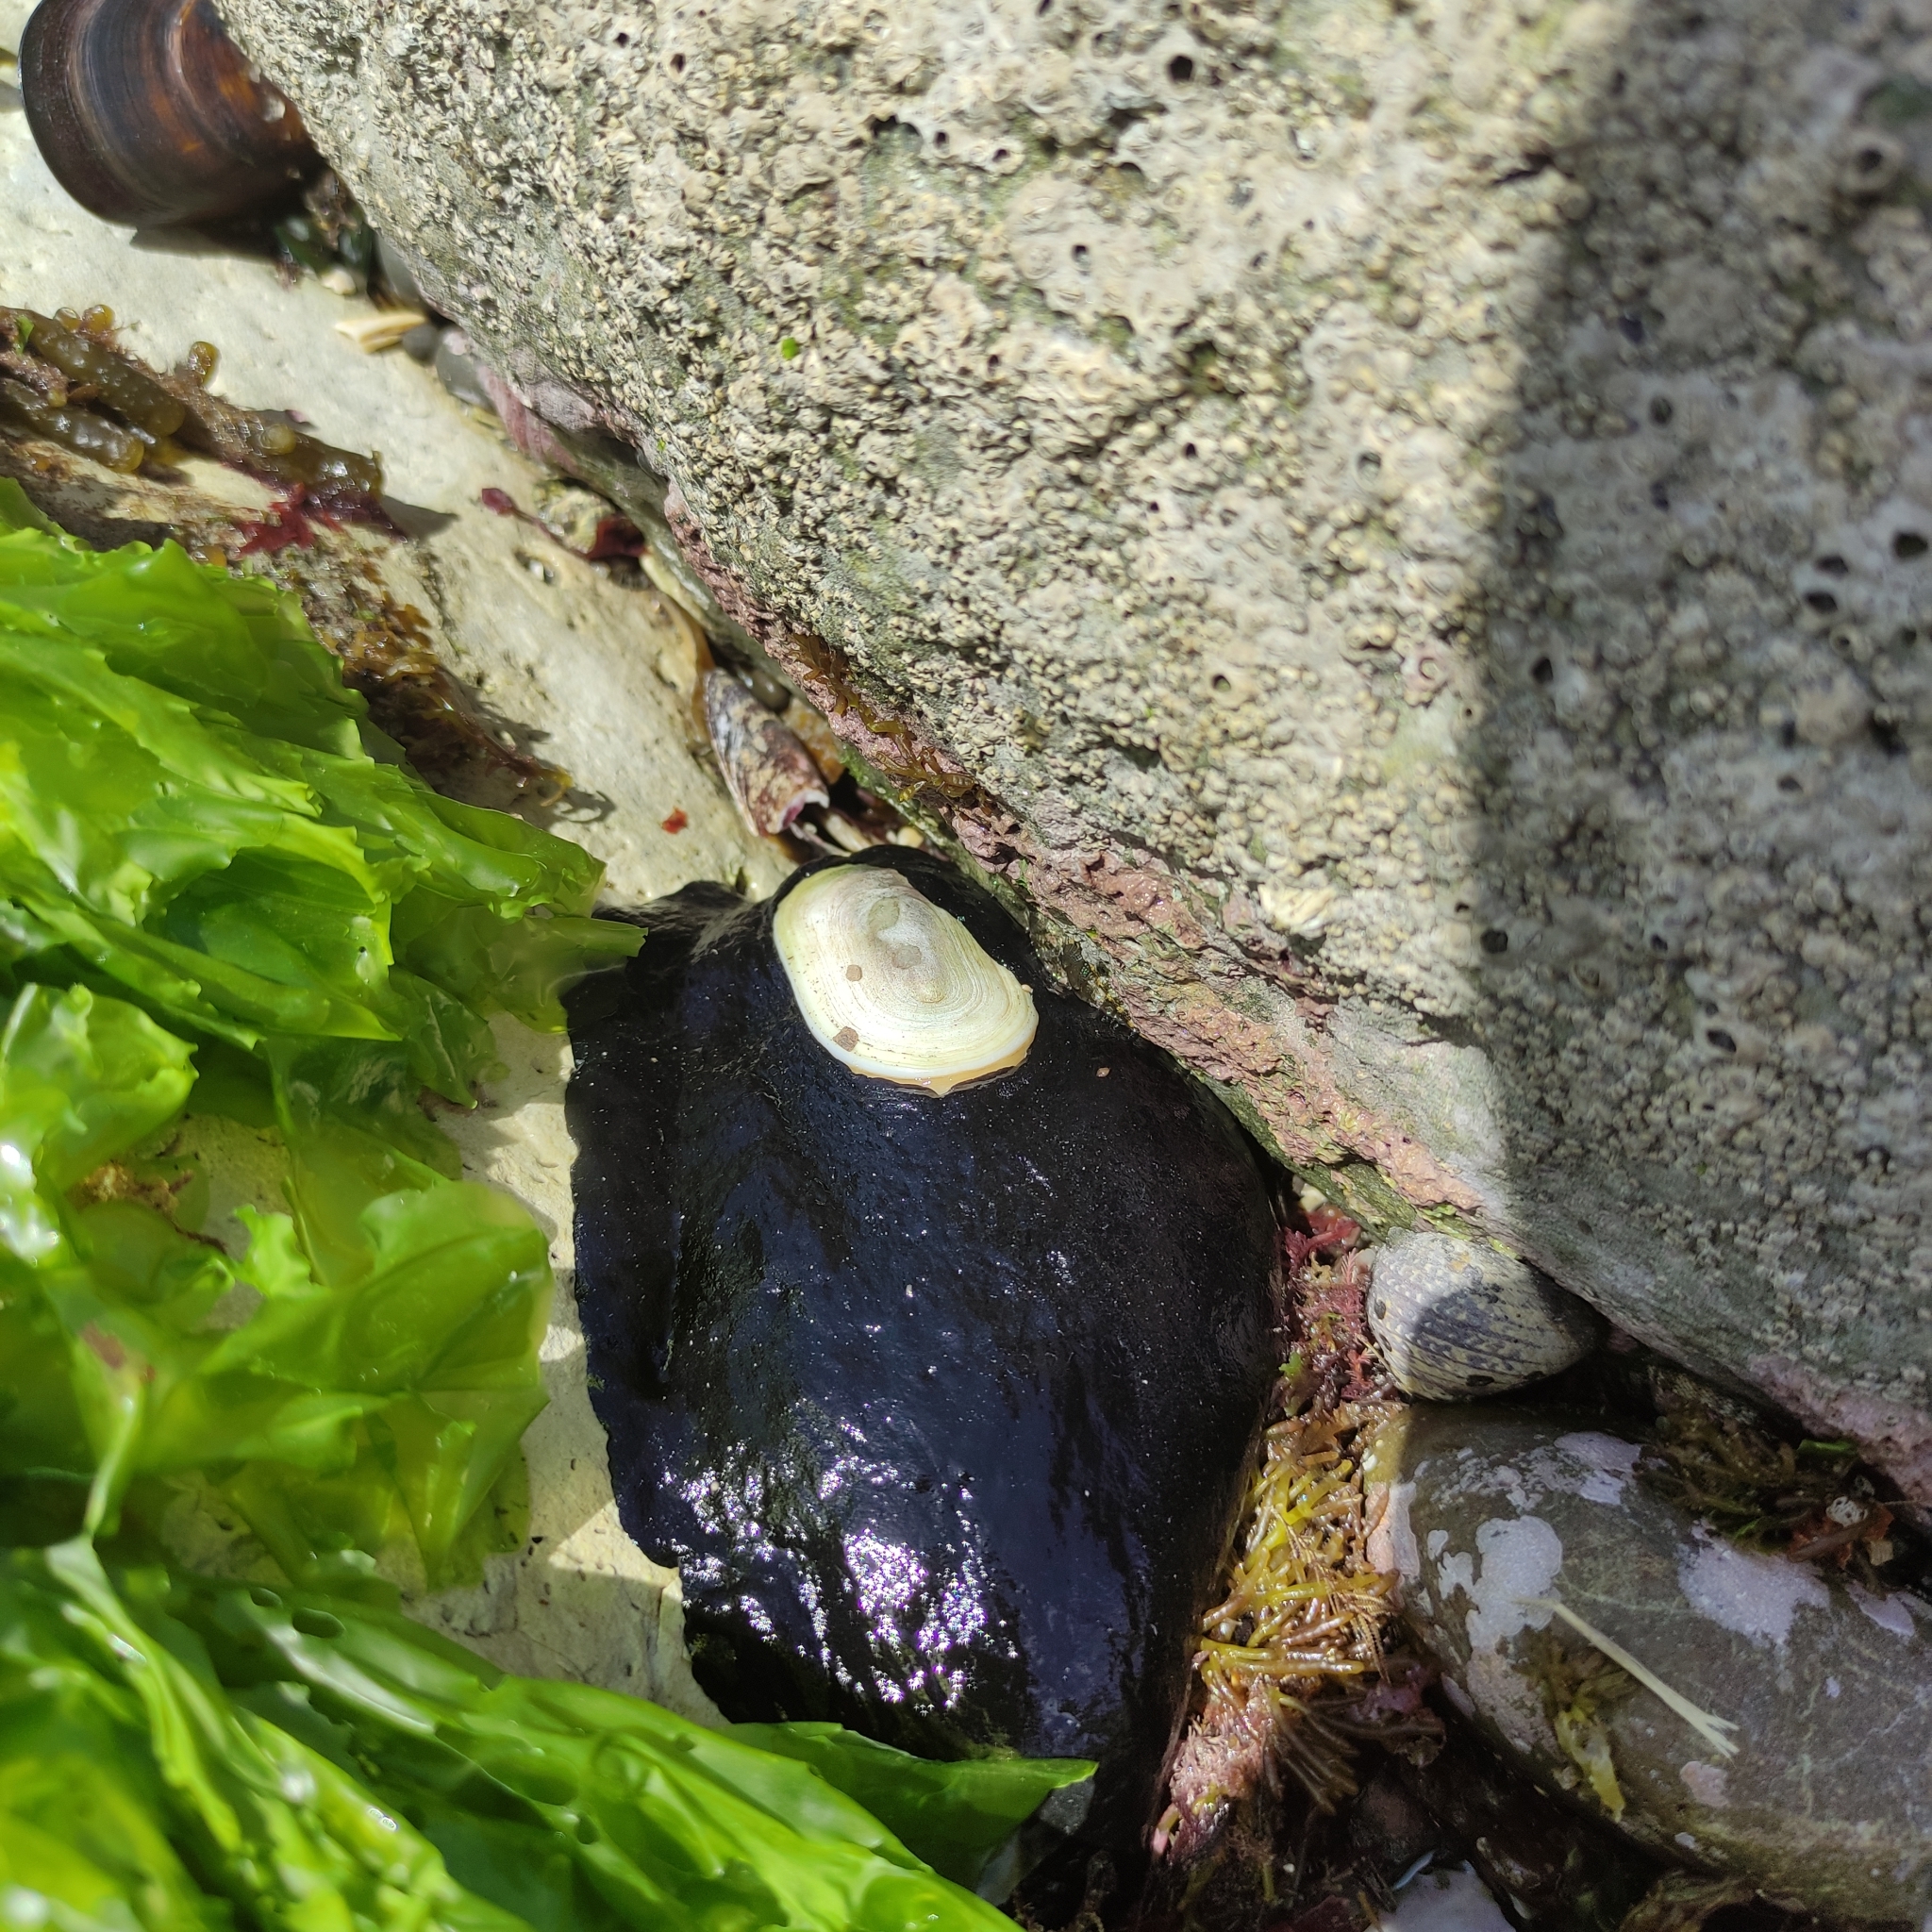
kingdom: Animalia
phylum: Mollusca
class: Gastropoda
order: Lepetellida
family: Fissurellidae
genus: Scutus
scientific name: Scutus breviculus
